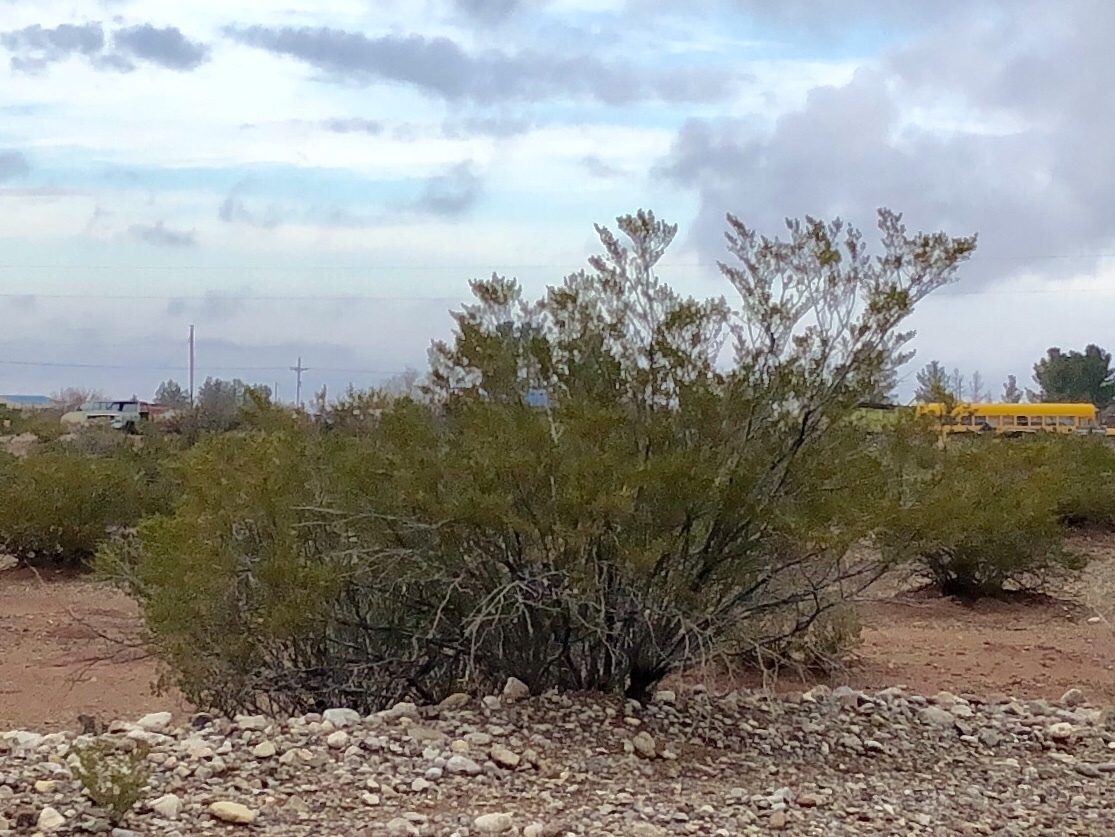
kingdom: Plantae
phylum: Tracheophyta
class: Magnoliopsida
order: Zygophyllales
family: Zygophyllaceae
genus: Larrea
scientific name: Larrea tridentata
